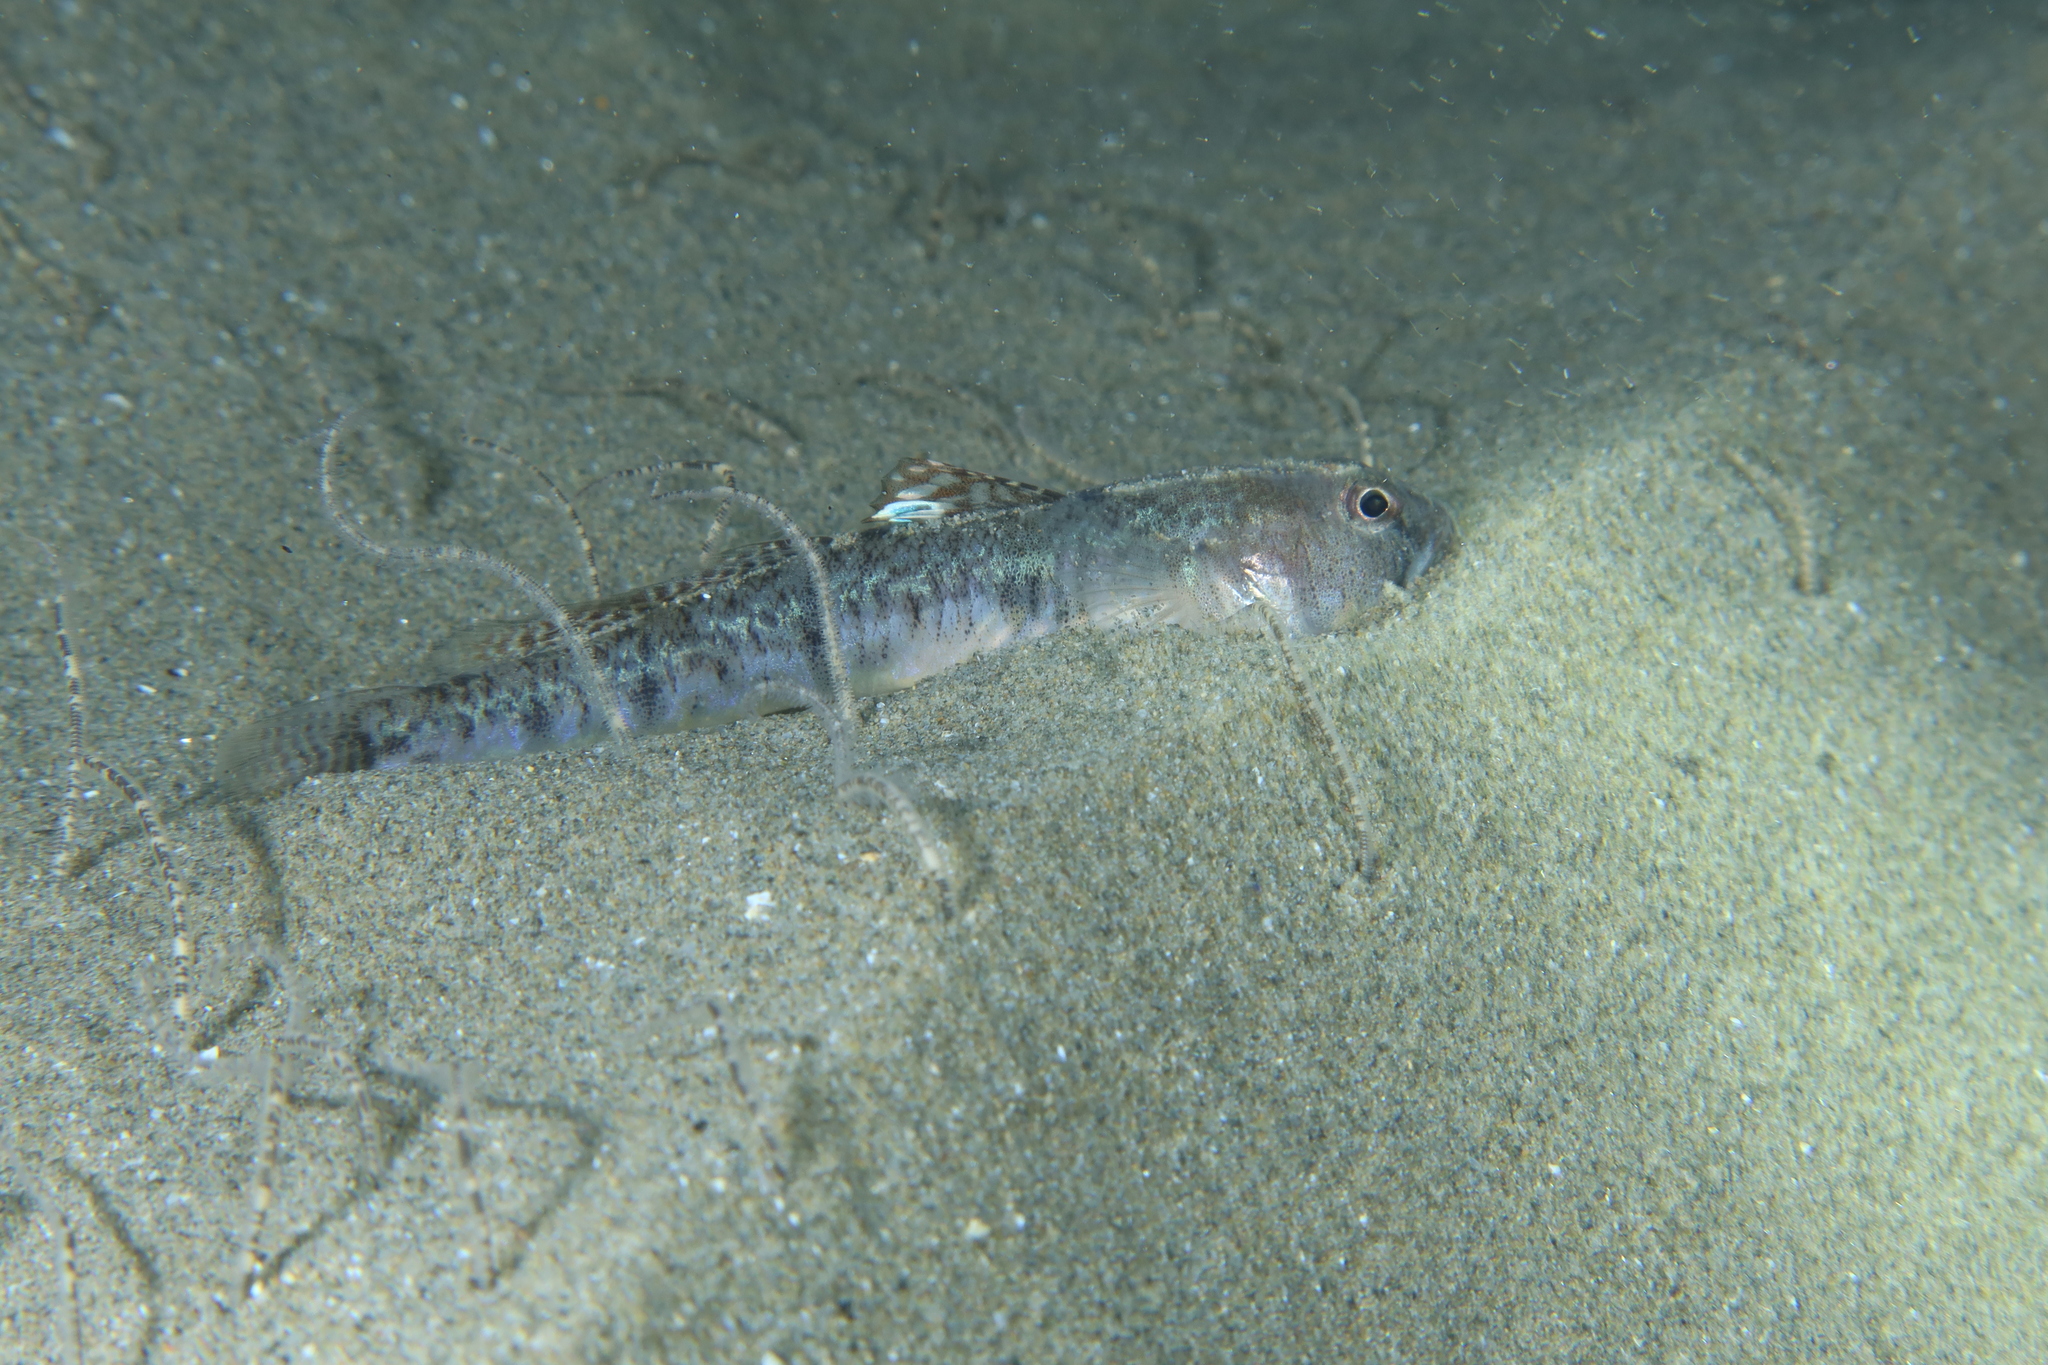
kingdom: Animalia
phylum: Chordata
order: Perciformes
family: Gobiidae
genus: Pomatoschistus
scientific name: Pomatoschistus minutus
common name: Sand goby
